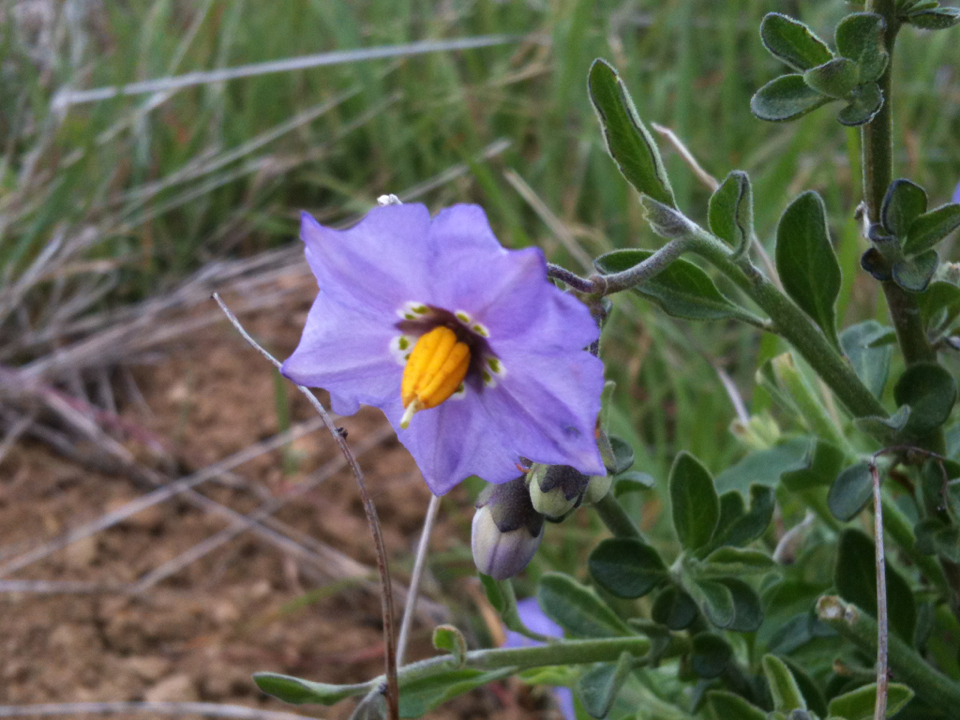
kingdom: Plantae
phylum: Tracheophyta
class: Magnoliopsida
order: Solanales
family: Solanaceae
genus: Solanum
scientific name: Solanum umbelliferum
